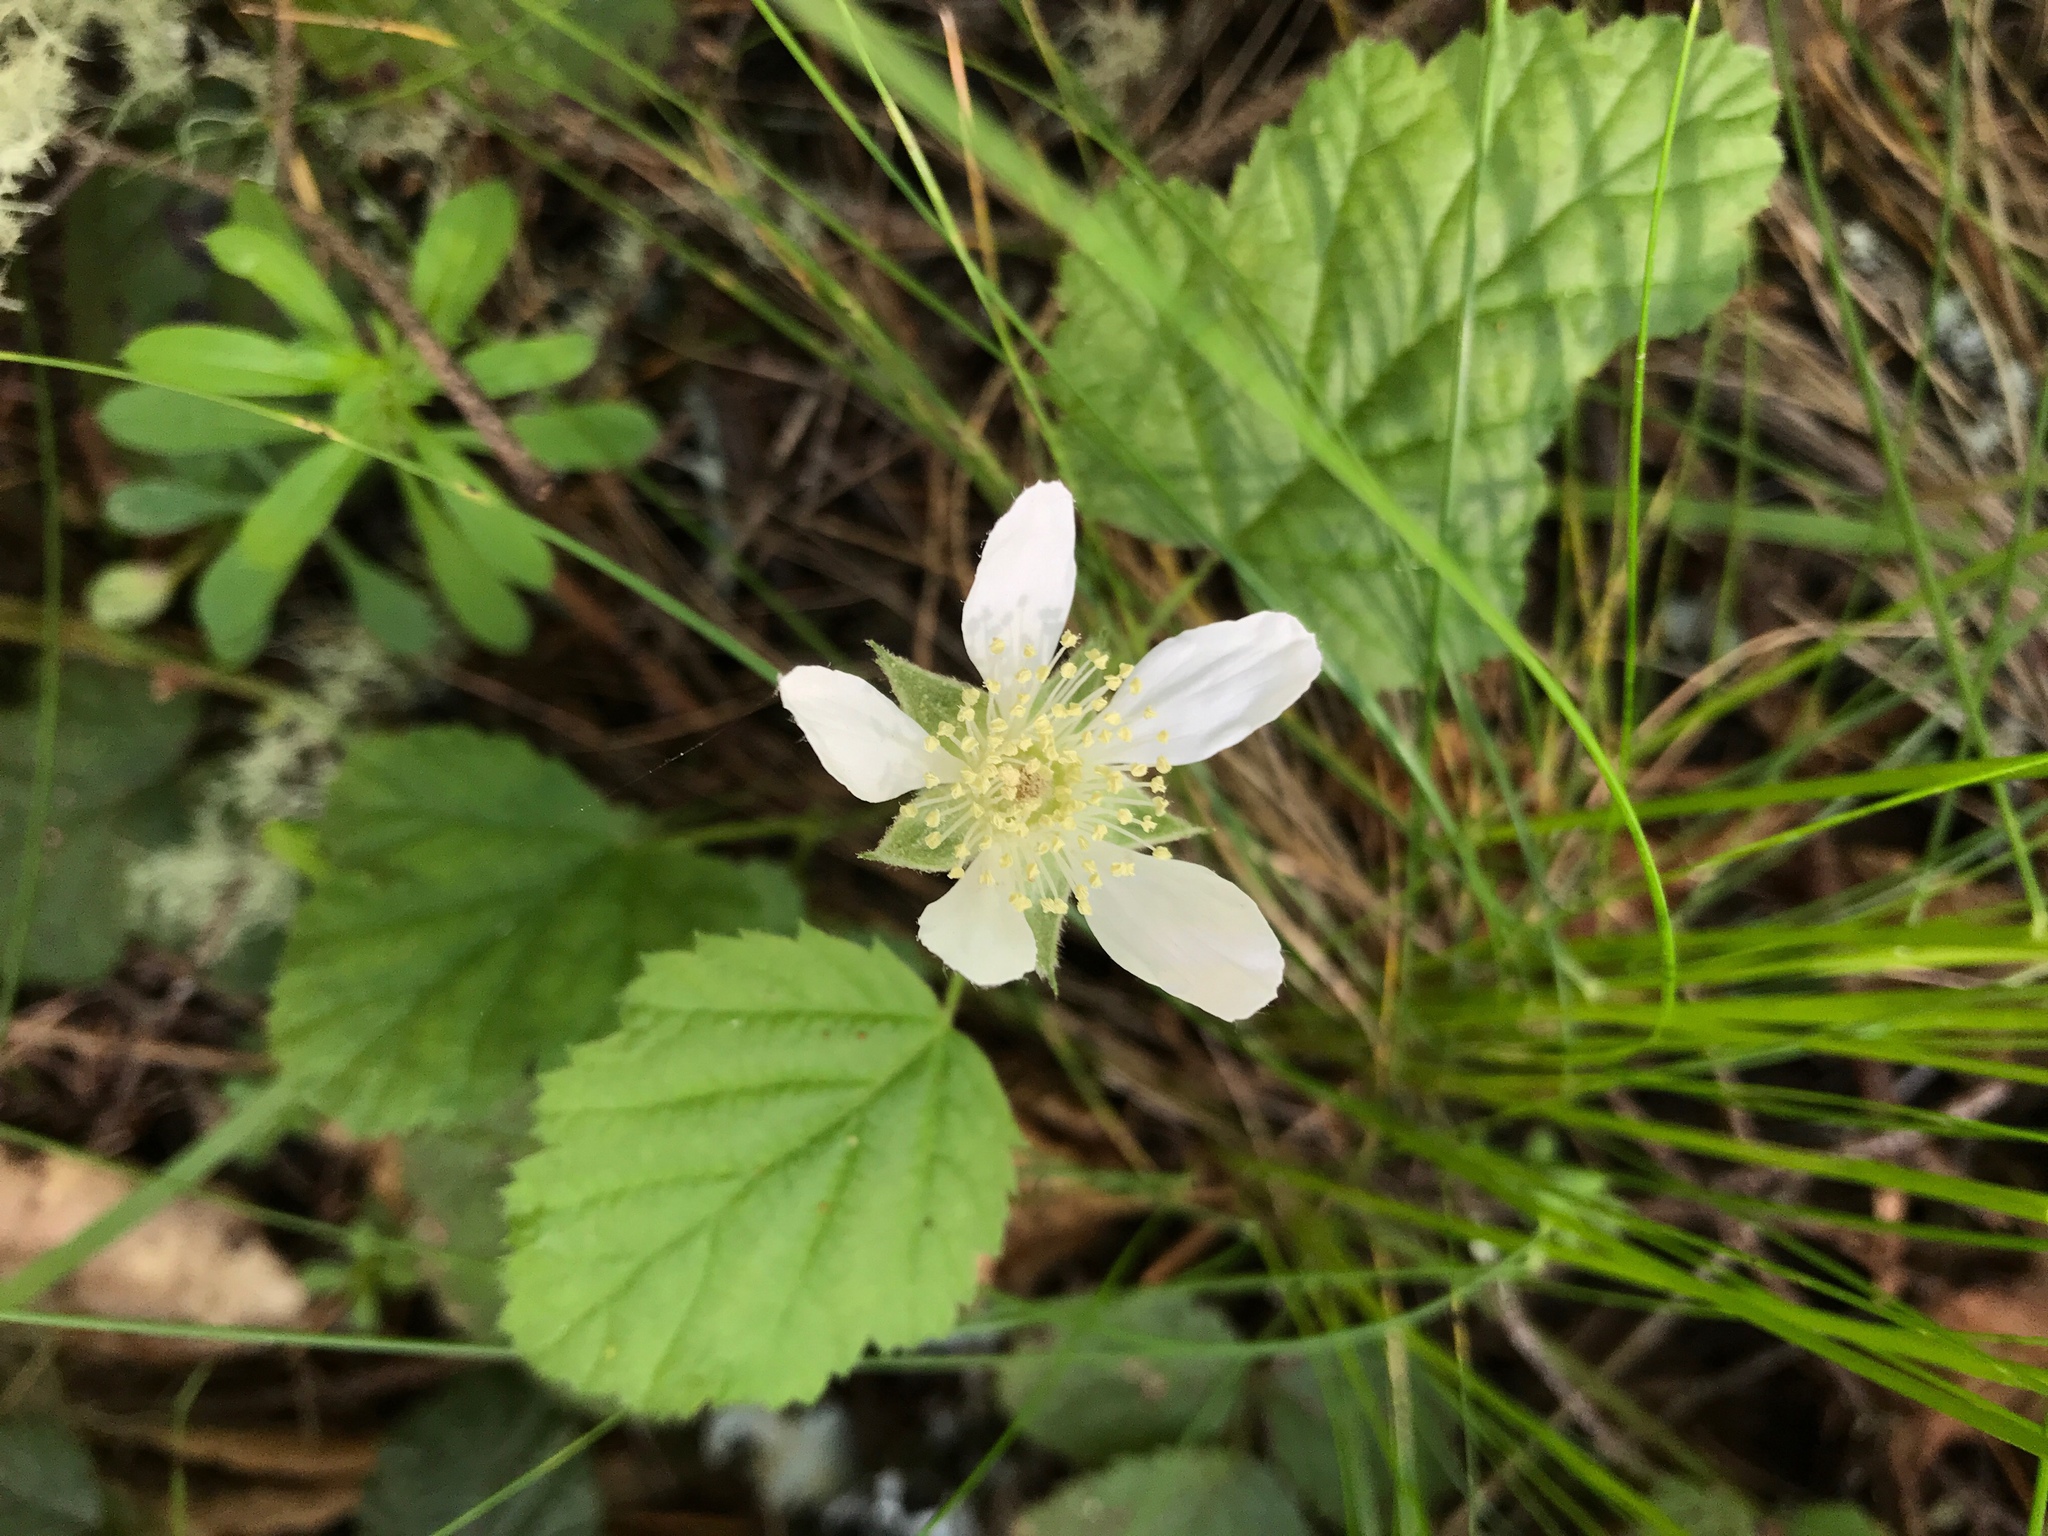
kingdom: Plantae
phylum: Tracheophyta
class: Magnoliopsida
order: Rosales
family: Rosaceae
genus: Rubus
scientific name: Rubus ursinus
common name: Pacific blackberry
